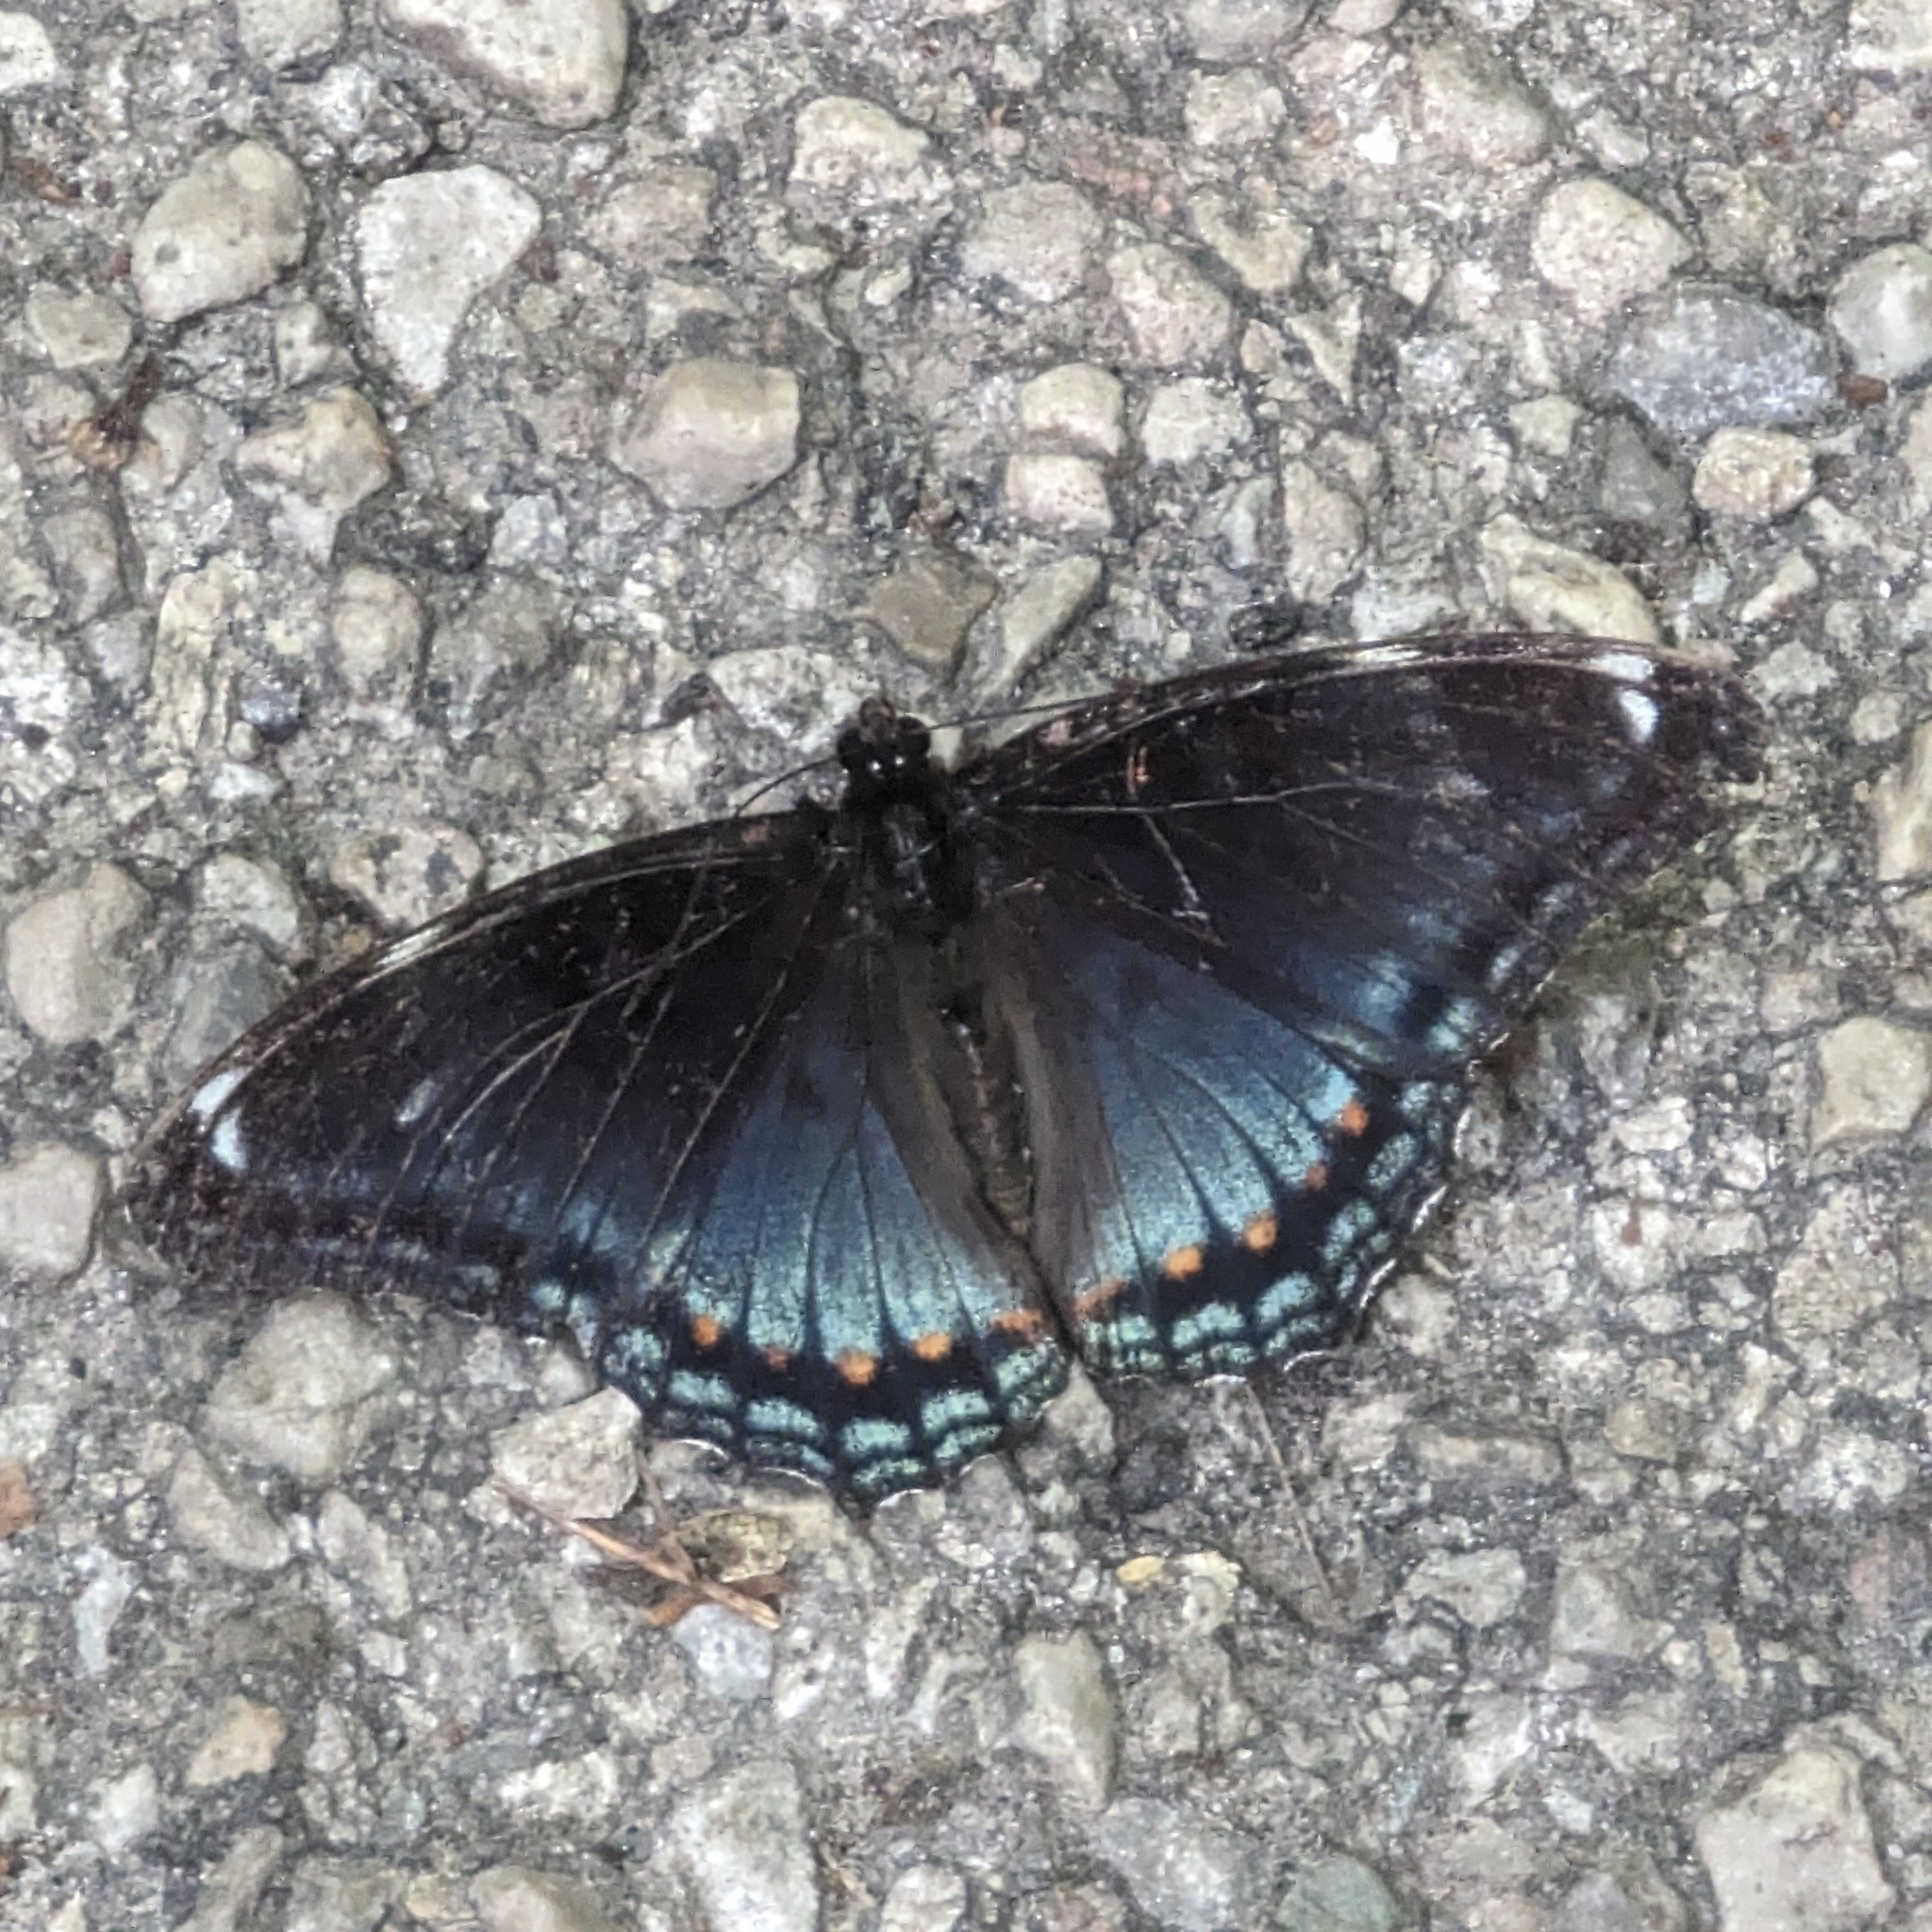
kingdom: Animalia
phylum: Arthropoda
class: Insecta
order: Lepidoptera
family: Nymphalidae
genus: Limenitis
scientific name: Limenitis
